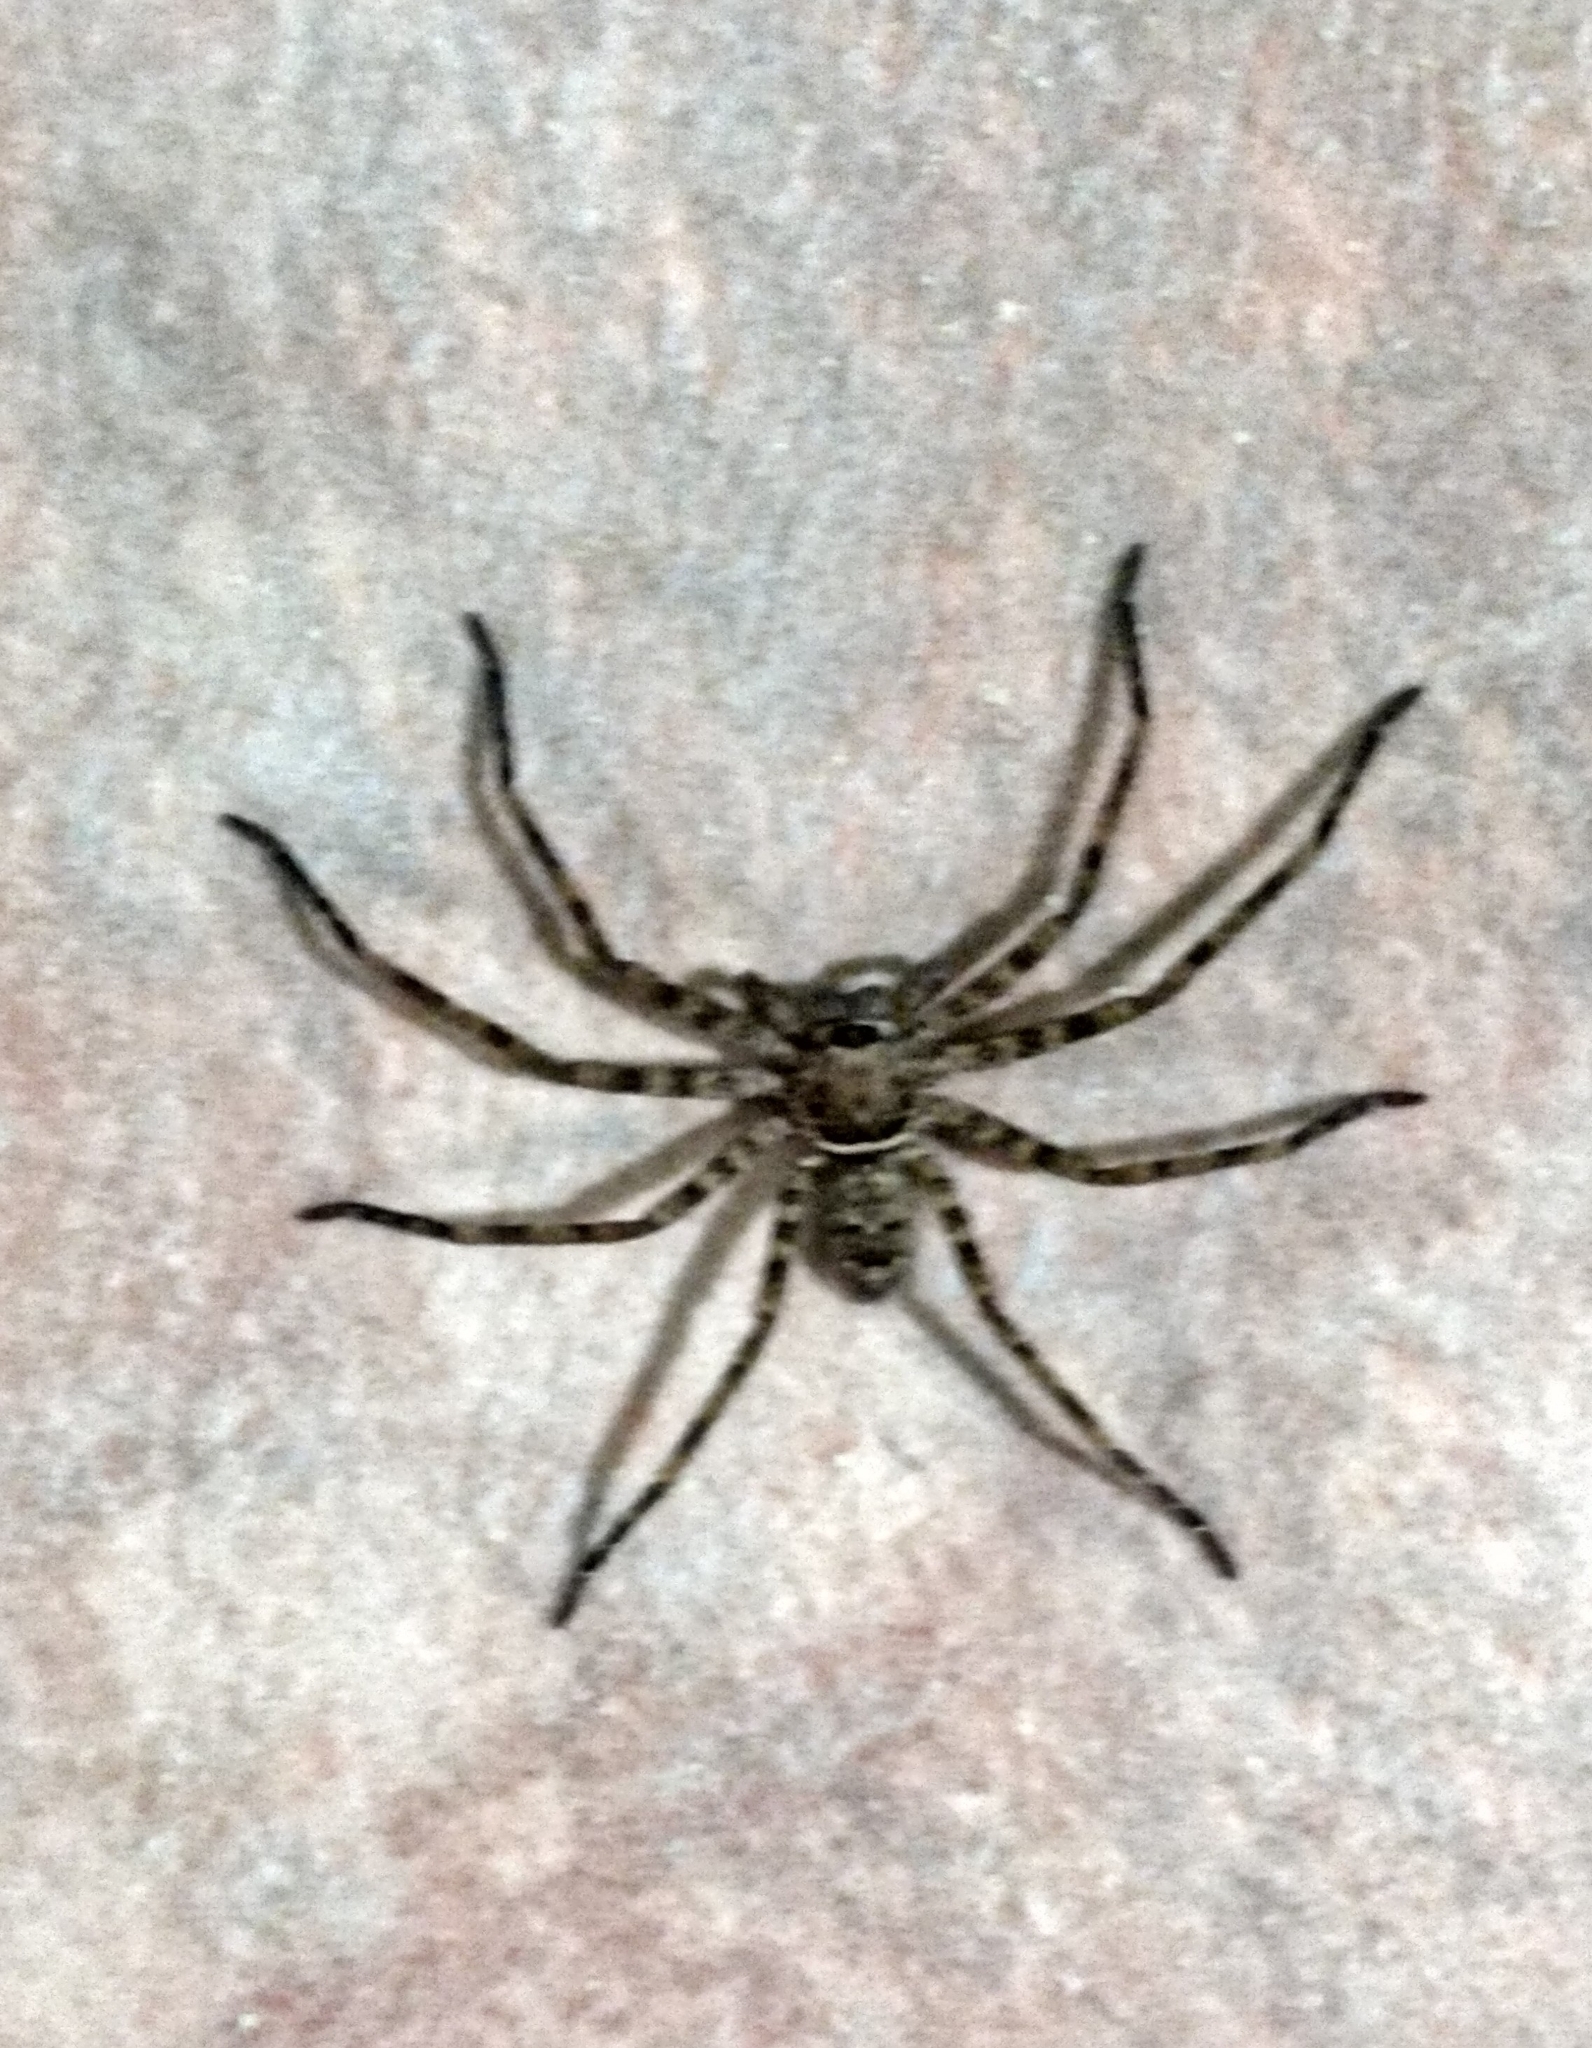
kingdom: Animalia
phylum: Arthropoda
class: Arachnida
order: Araneae
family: Sparassidae
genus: Heteropoda
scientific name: Heteropoda venatoria
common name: Huntsman spider
